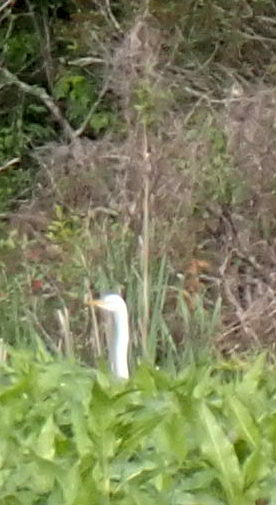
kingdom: Animalia
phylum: Chordata
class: Aves
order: Pelecaniformes
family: Ardeidae
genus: Ardea
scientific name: Ardea alba
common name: Great egret
